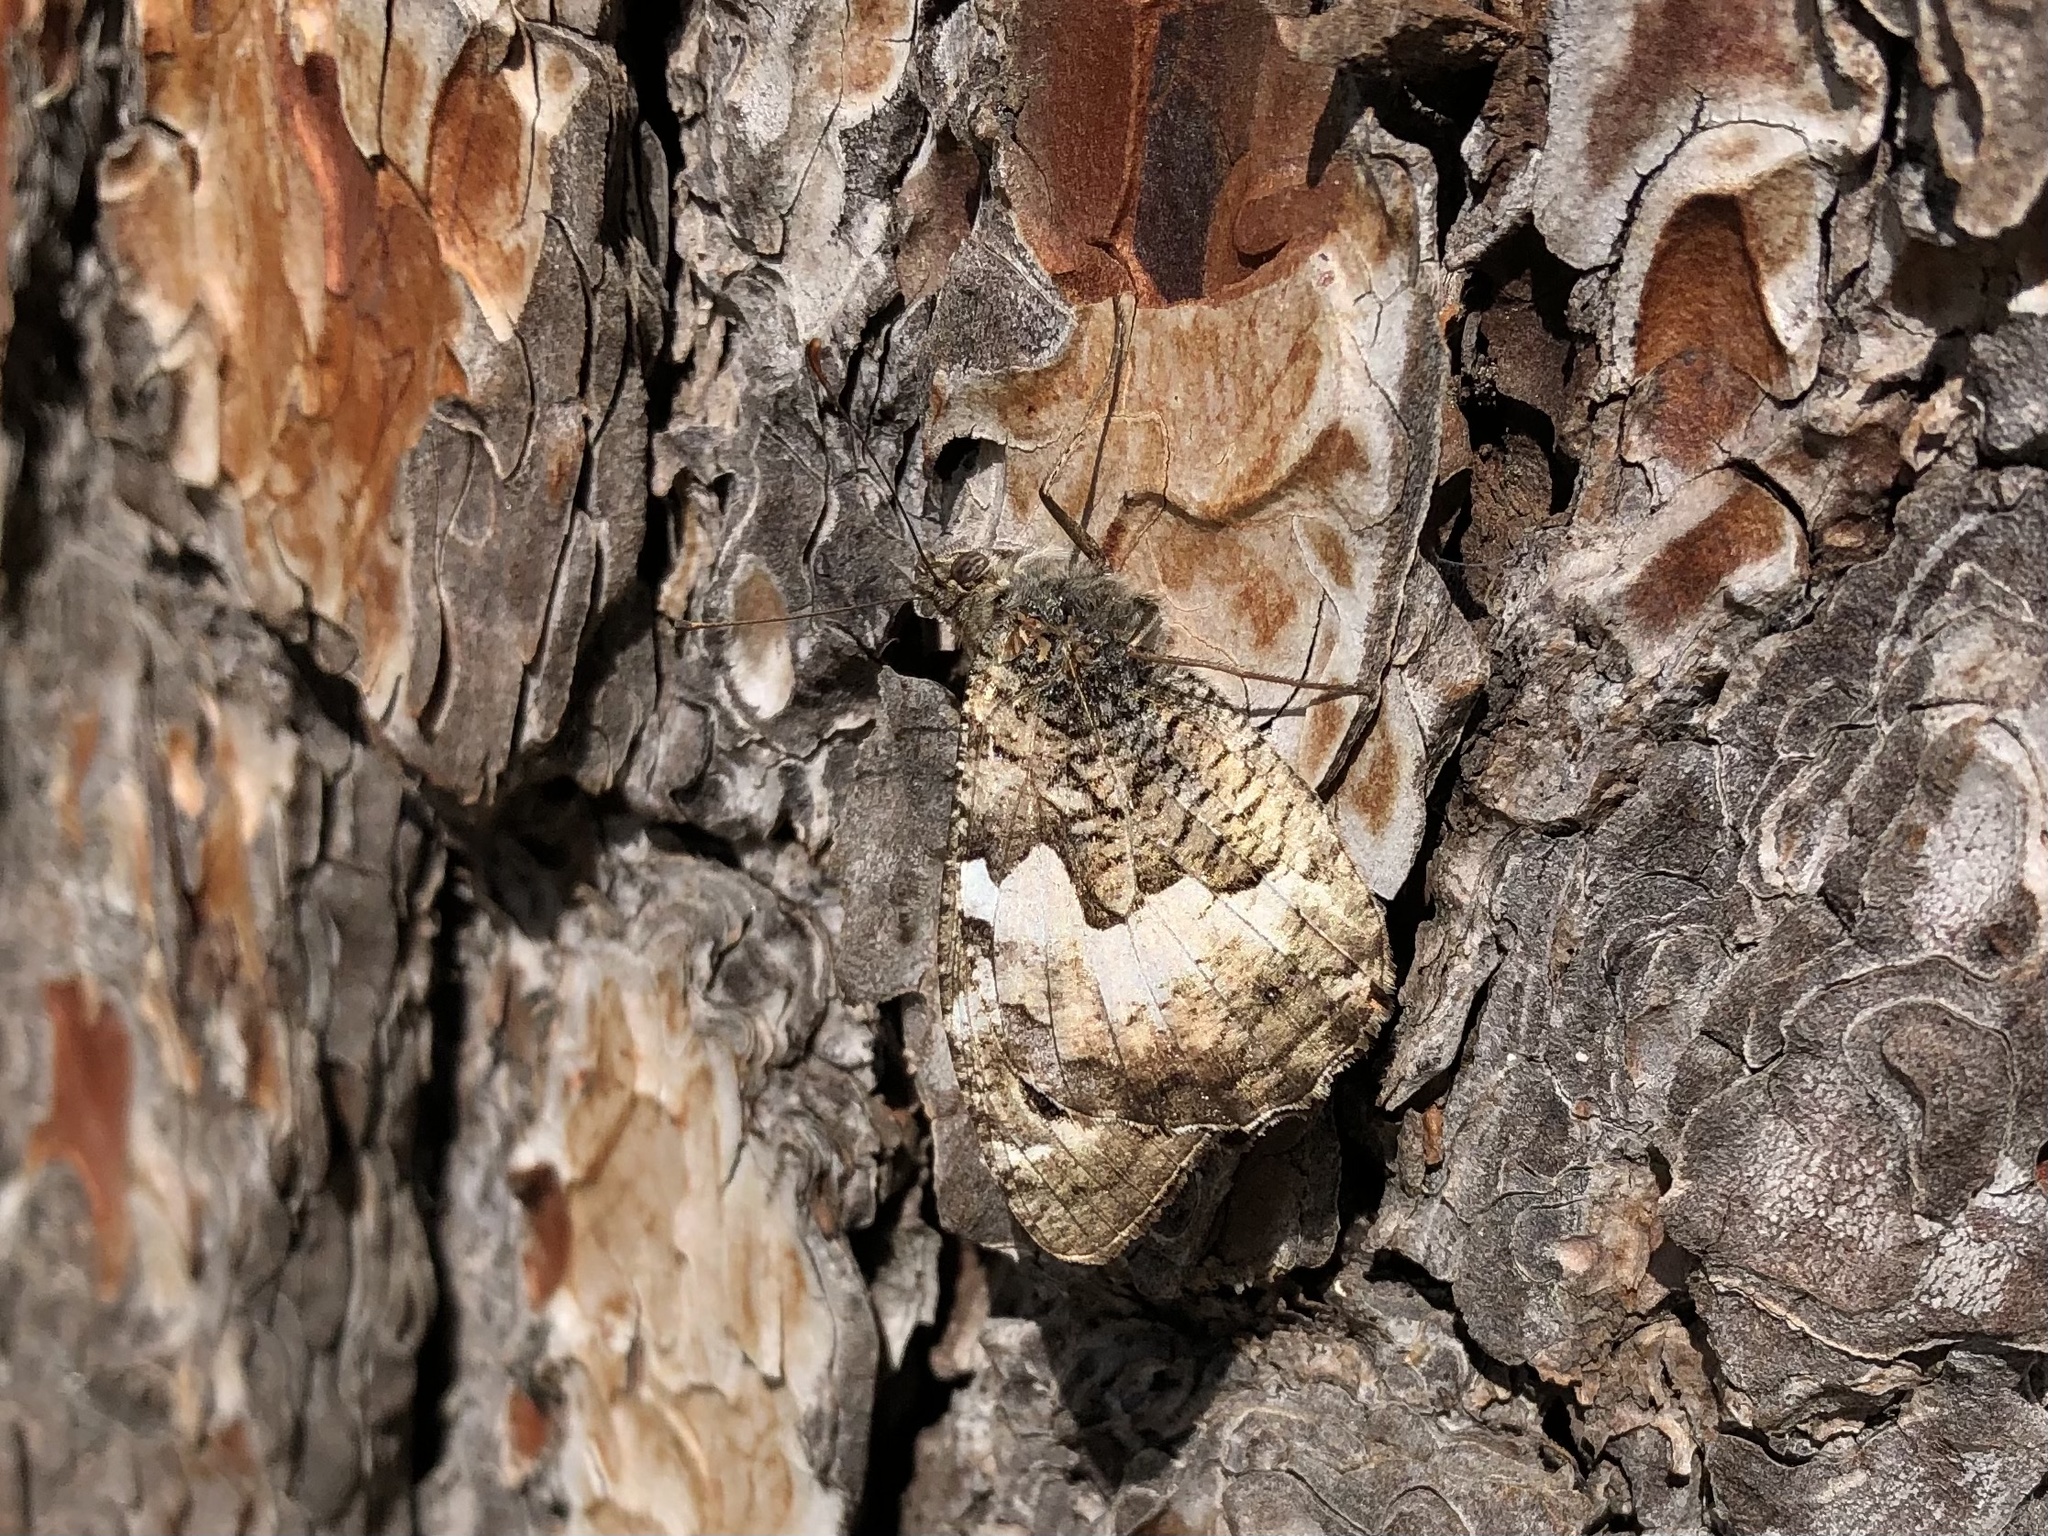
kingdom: Animalia
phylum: Arthropoda
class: Insecta
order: Lepidoptera
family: Nymphalidae
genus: Hipparchia
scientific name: Hipparchia semele
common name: Grayling
